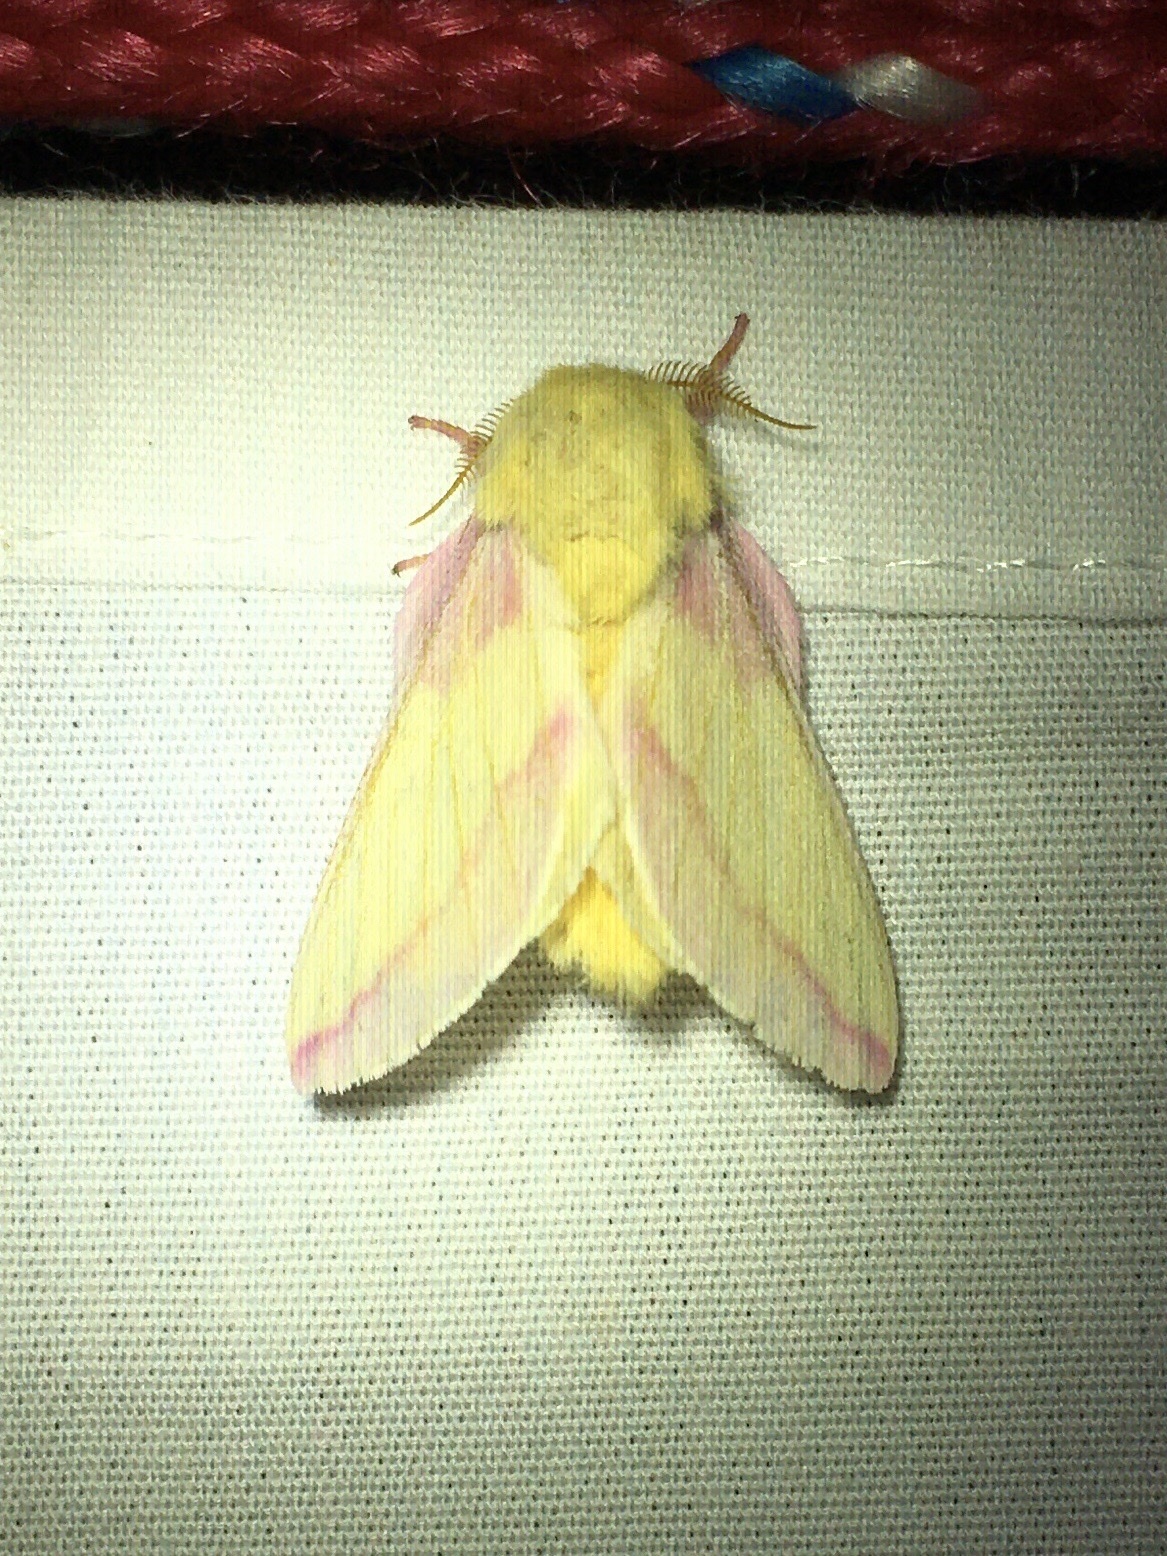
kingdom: Animalia
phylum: Arthropoda
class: Insecta
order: Lepidoptera
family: Saturniidae
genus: Dryocampa
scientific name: Dryocampa rubicunda
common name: Rosy maple moth
